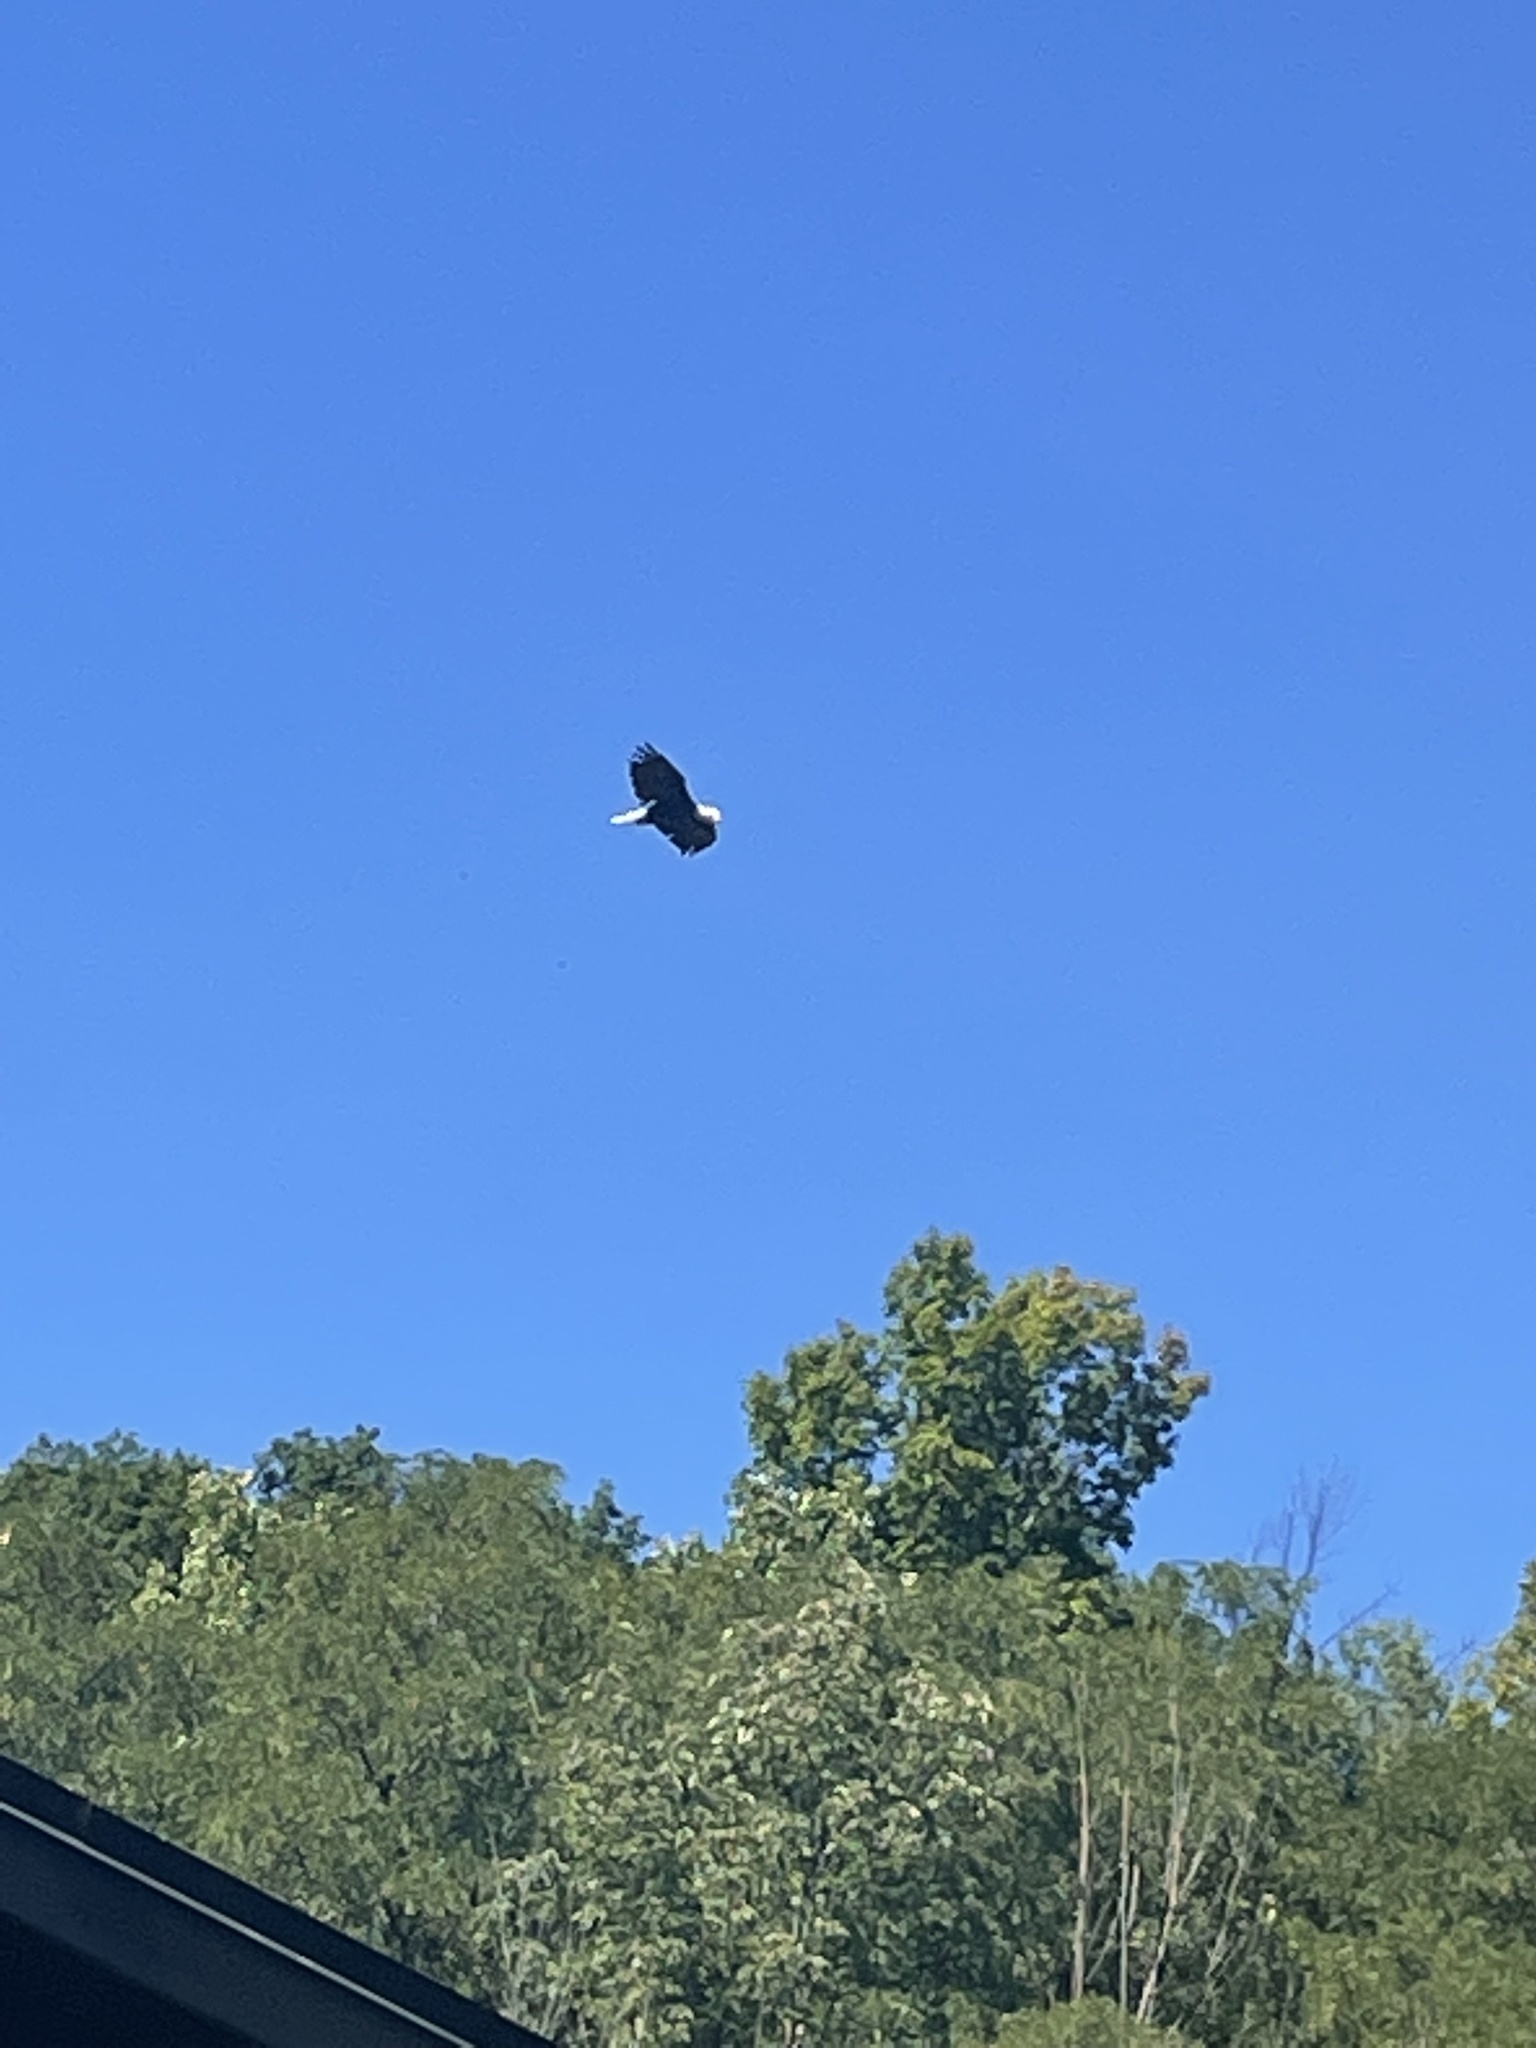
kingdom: Animalia
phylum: Chordata
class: Aves
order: Accipitriformes
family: Accipitridae
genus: Haliaeetus
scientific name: Haliaeetus leucocephalus
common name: Bald eagle
